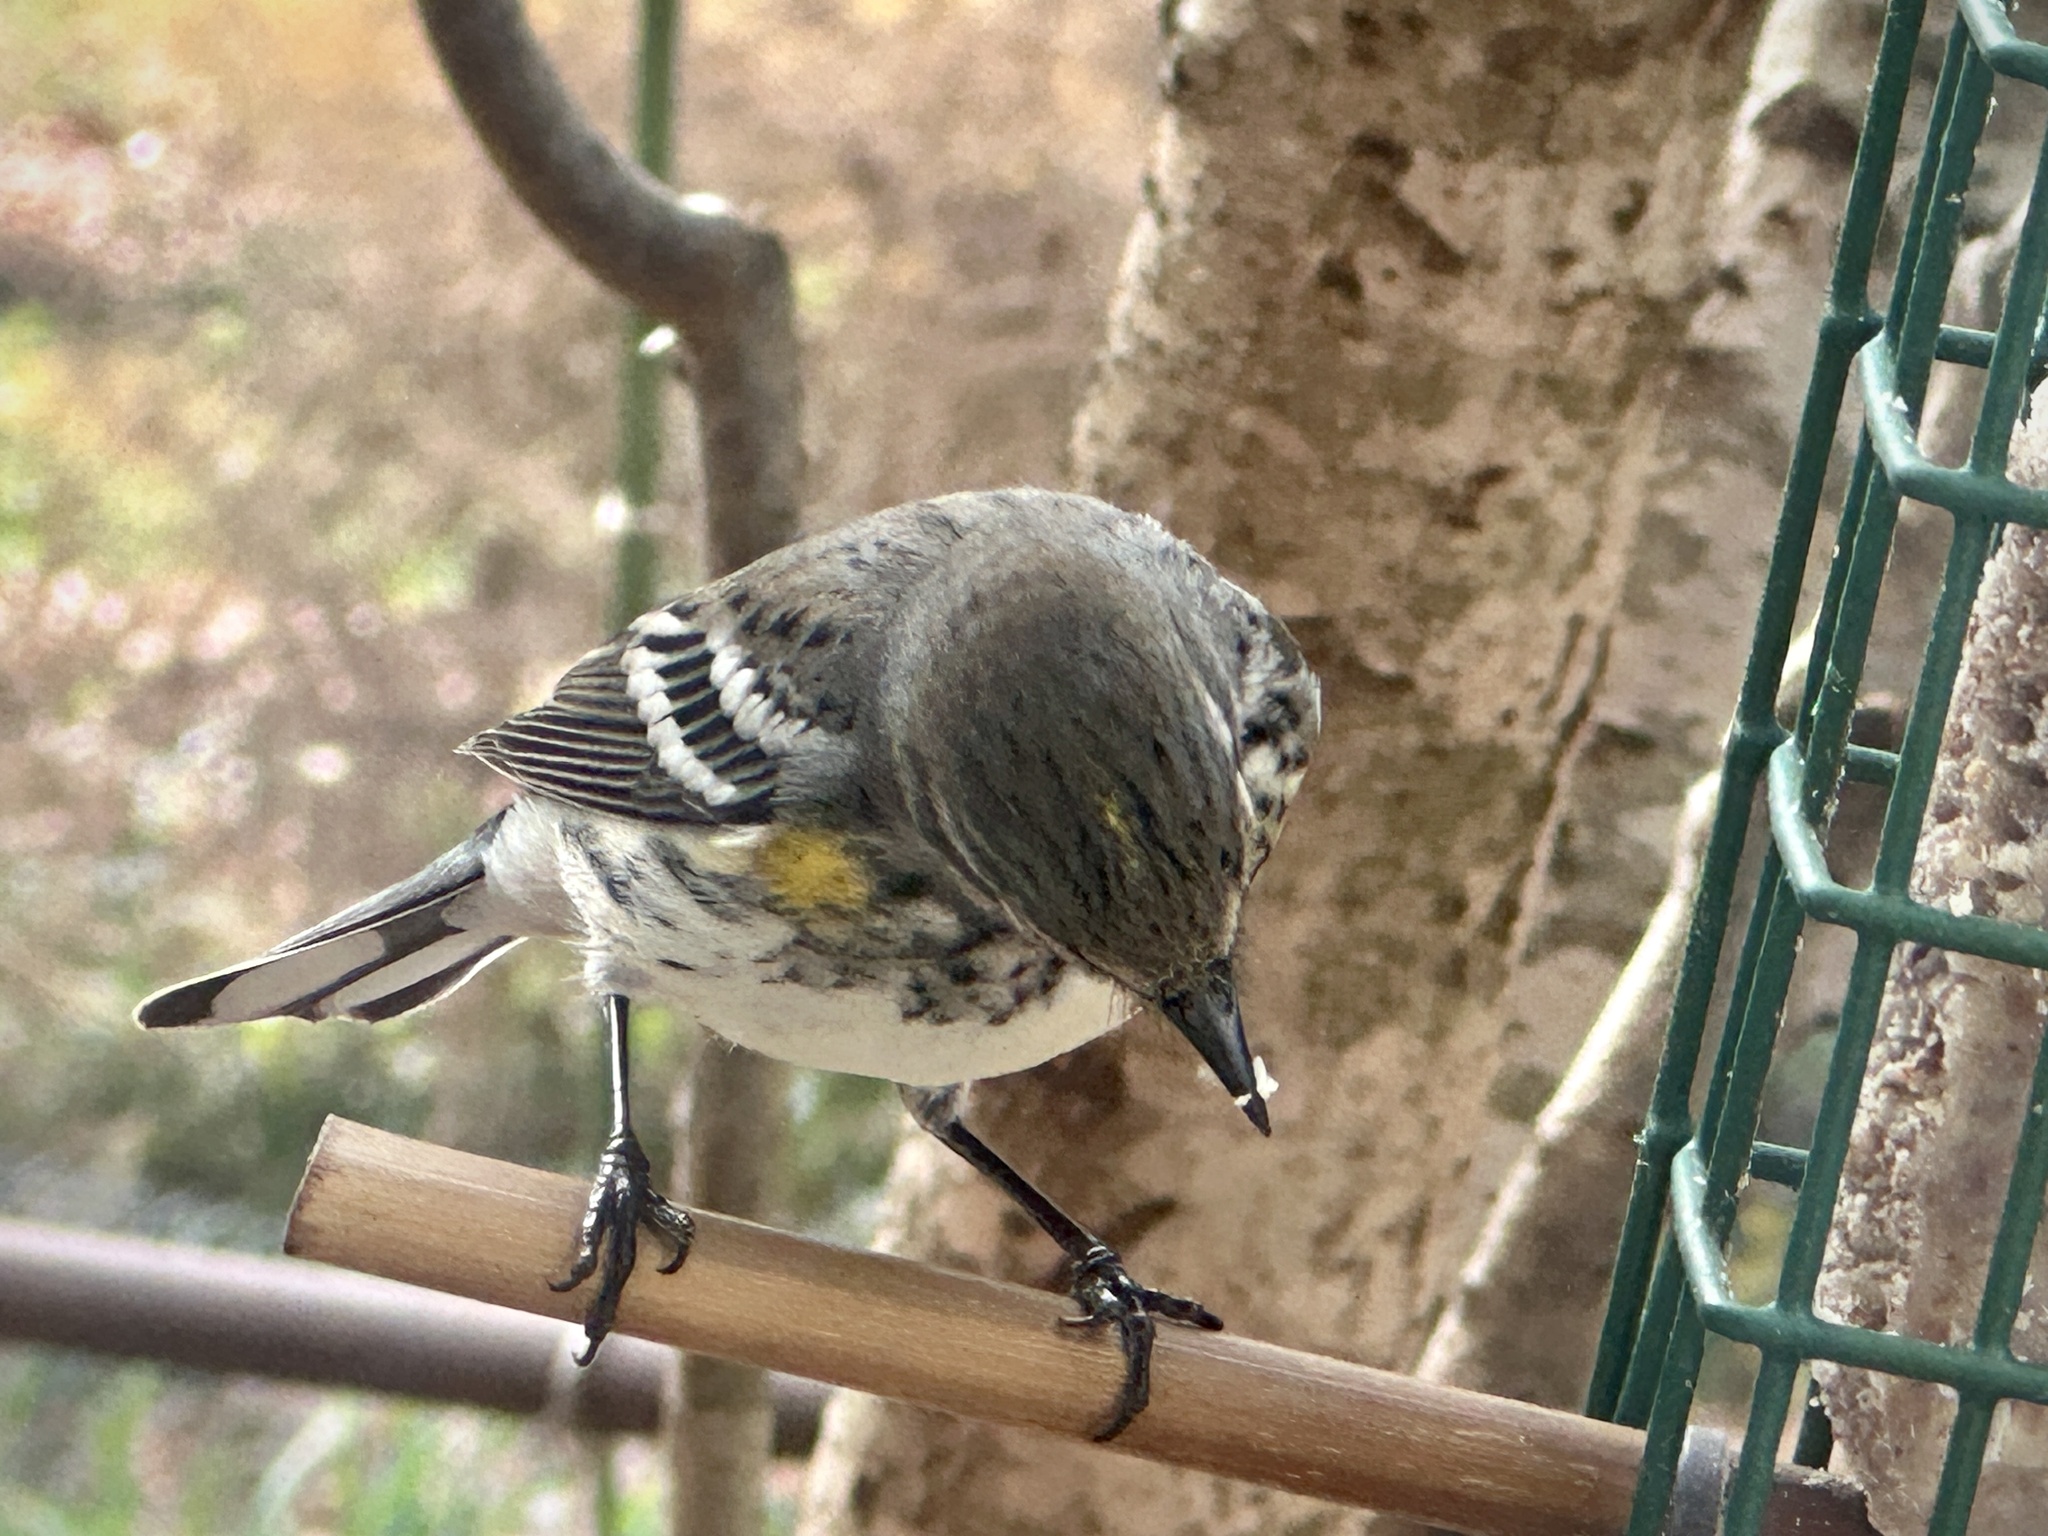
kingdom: Animalia
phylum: Chordata
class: Aves
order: Passeriformes
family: Parulidae
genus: Setophaga
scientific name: Setophaga coronata
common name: Myrtle warbler
